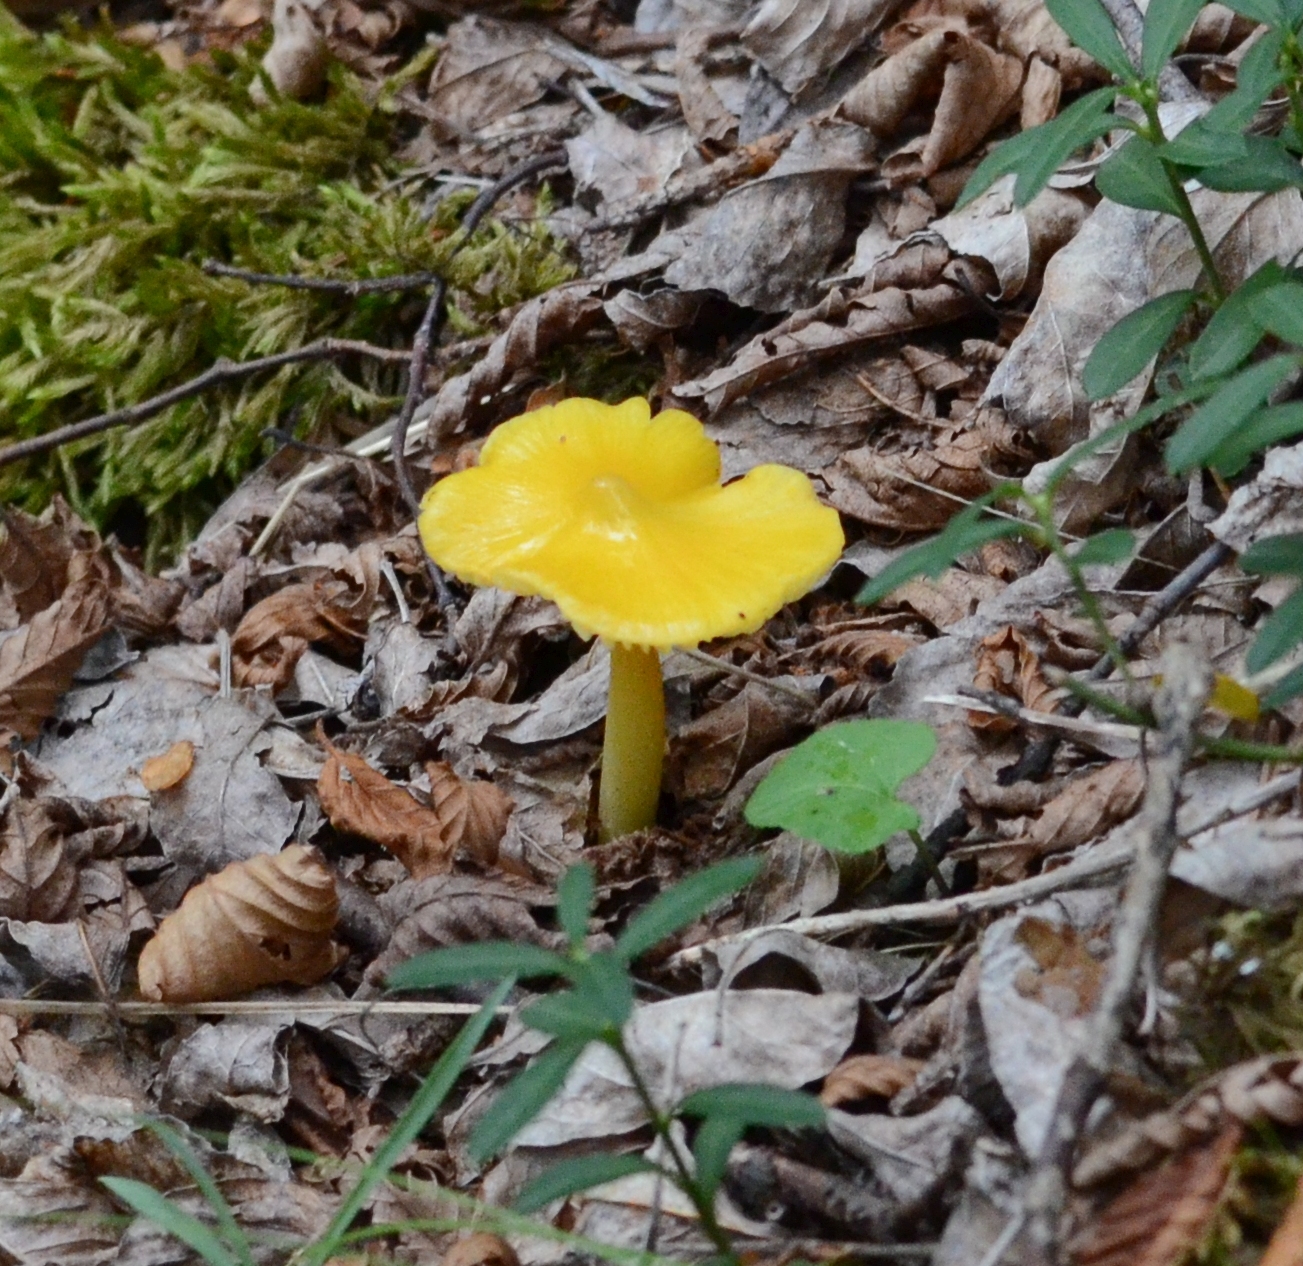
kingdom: Fungi
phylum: Basidiomycota
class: Agaricomycetes
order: Agaricales
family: Hygrophoraceae
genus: Hygrocybe
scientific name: Hygrocybe acutoconica
